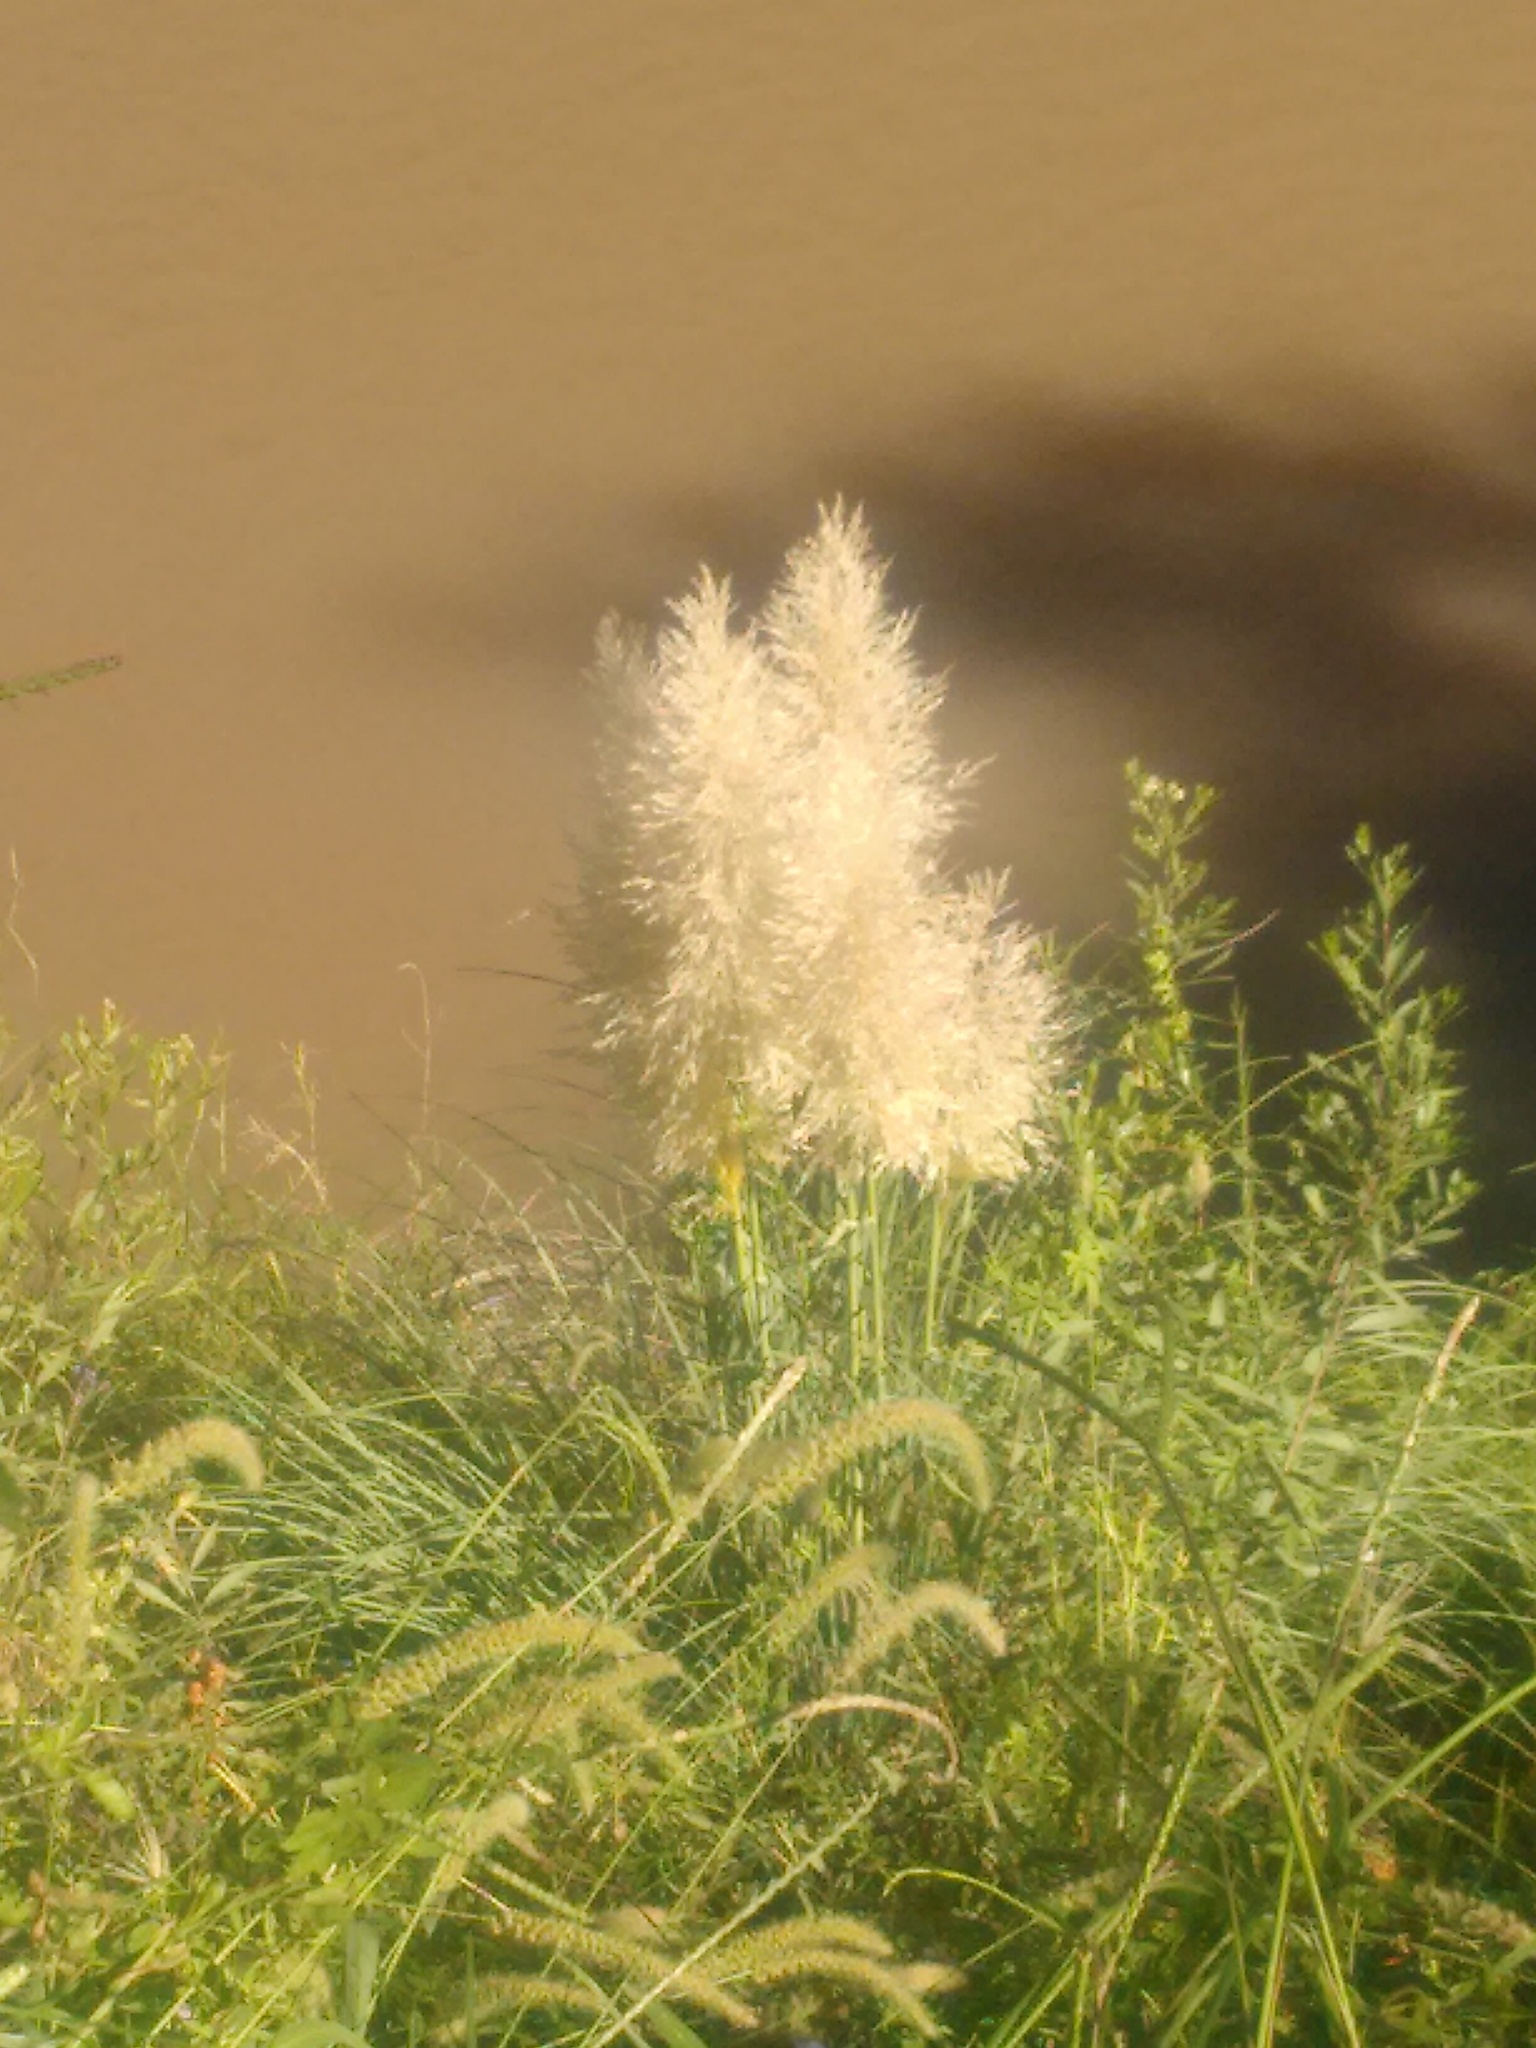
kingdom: Plantae
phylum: Tracheophyta
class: Liliopsida
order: Poales
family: Poaceae
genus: Cortaderia
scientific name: Cortaderia selloana
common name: Uruguayan pampas grass
